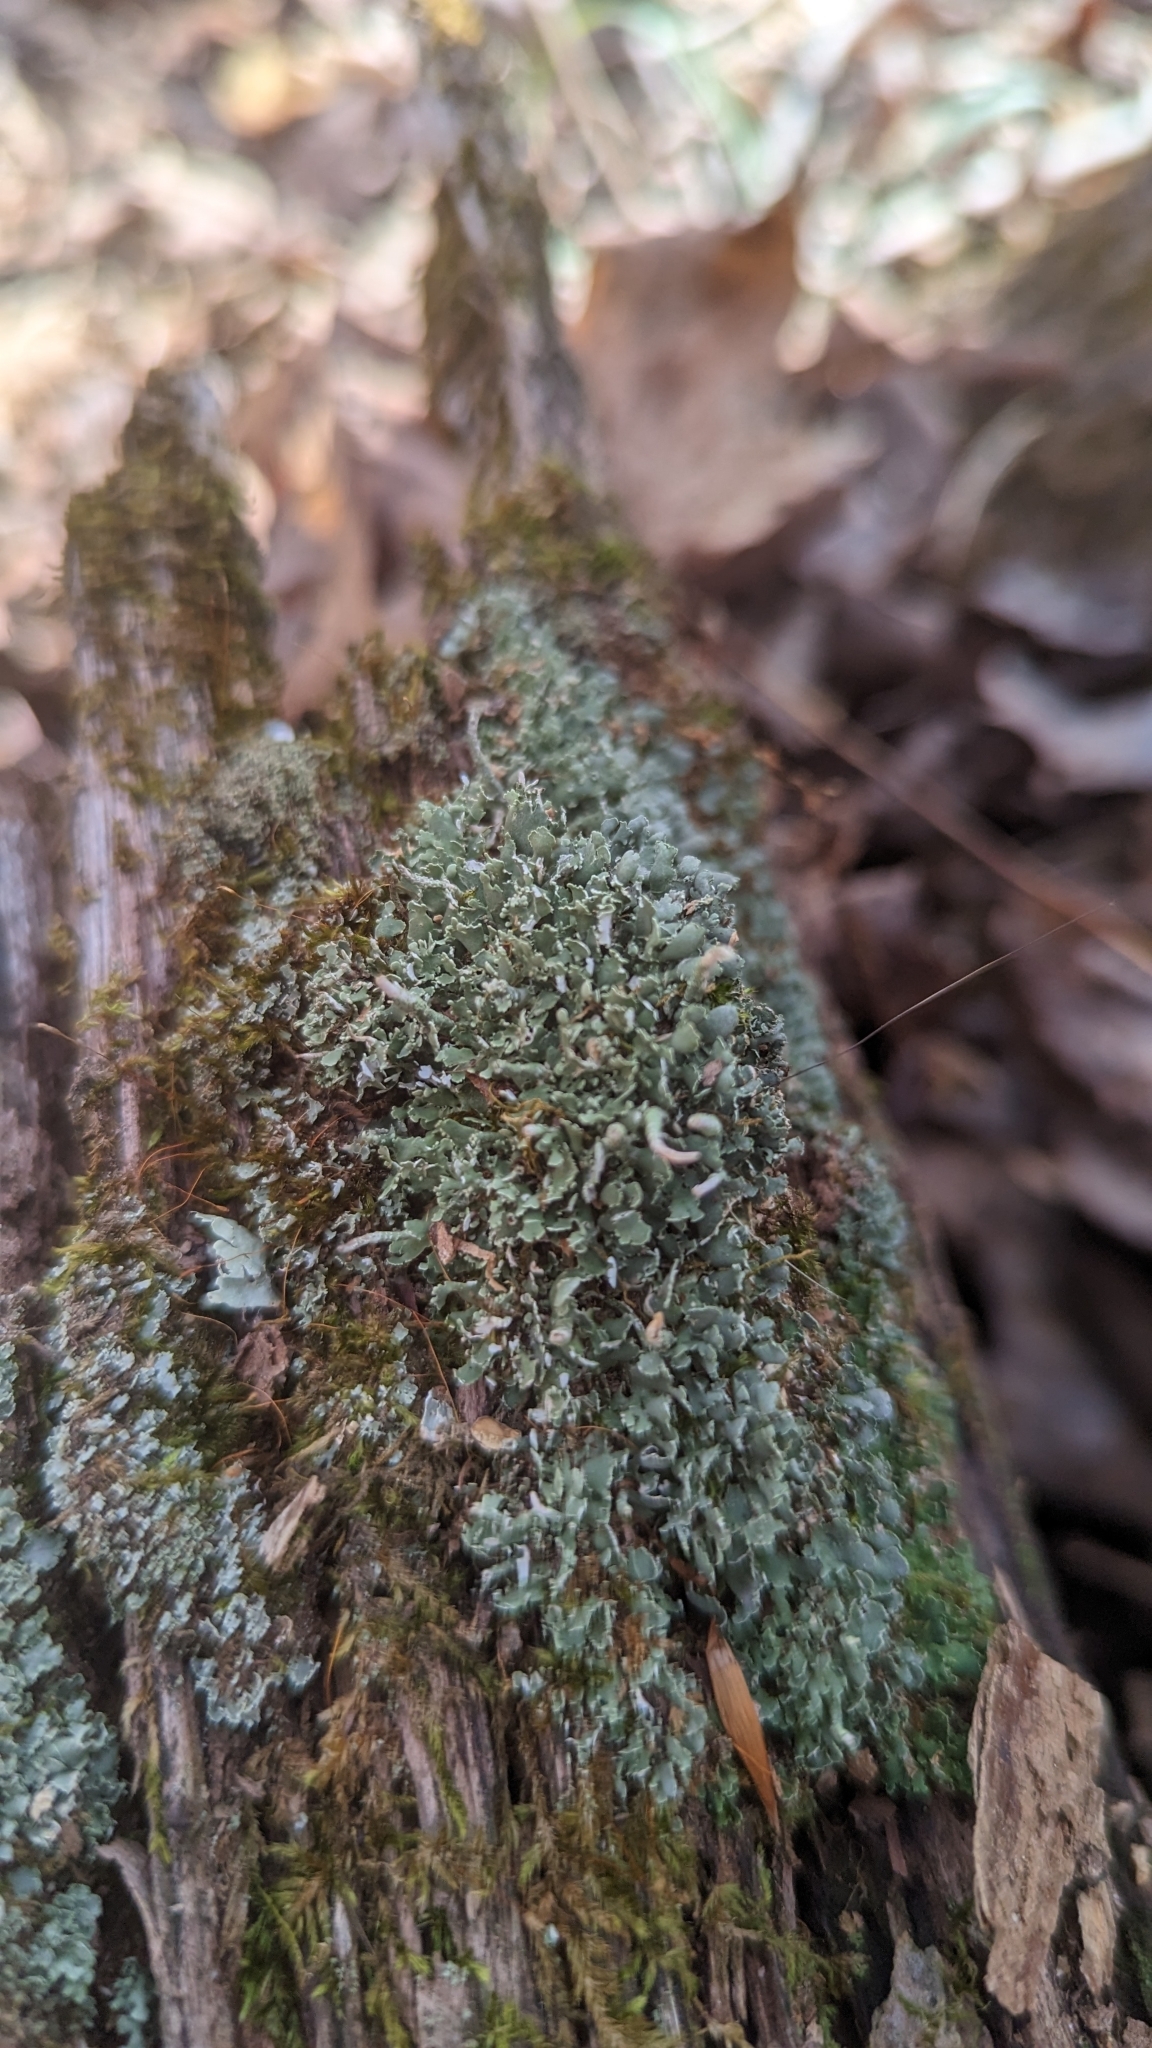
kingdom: Fungi
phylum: Ascomycota
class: Lecanoromycetes
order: Lecanorales
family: Cladoniaceae
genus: Cladonia
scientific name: Cladonia coniocraea
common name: Common powderhorn
